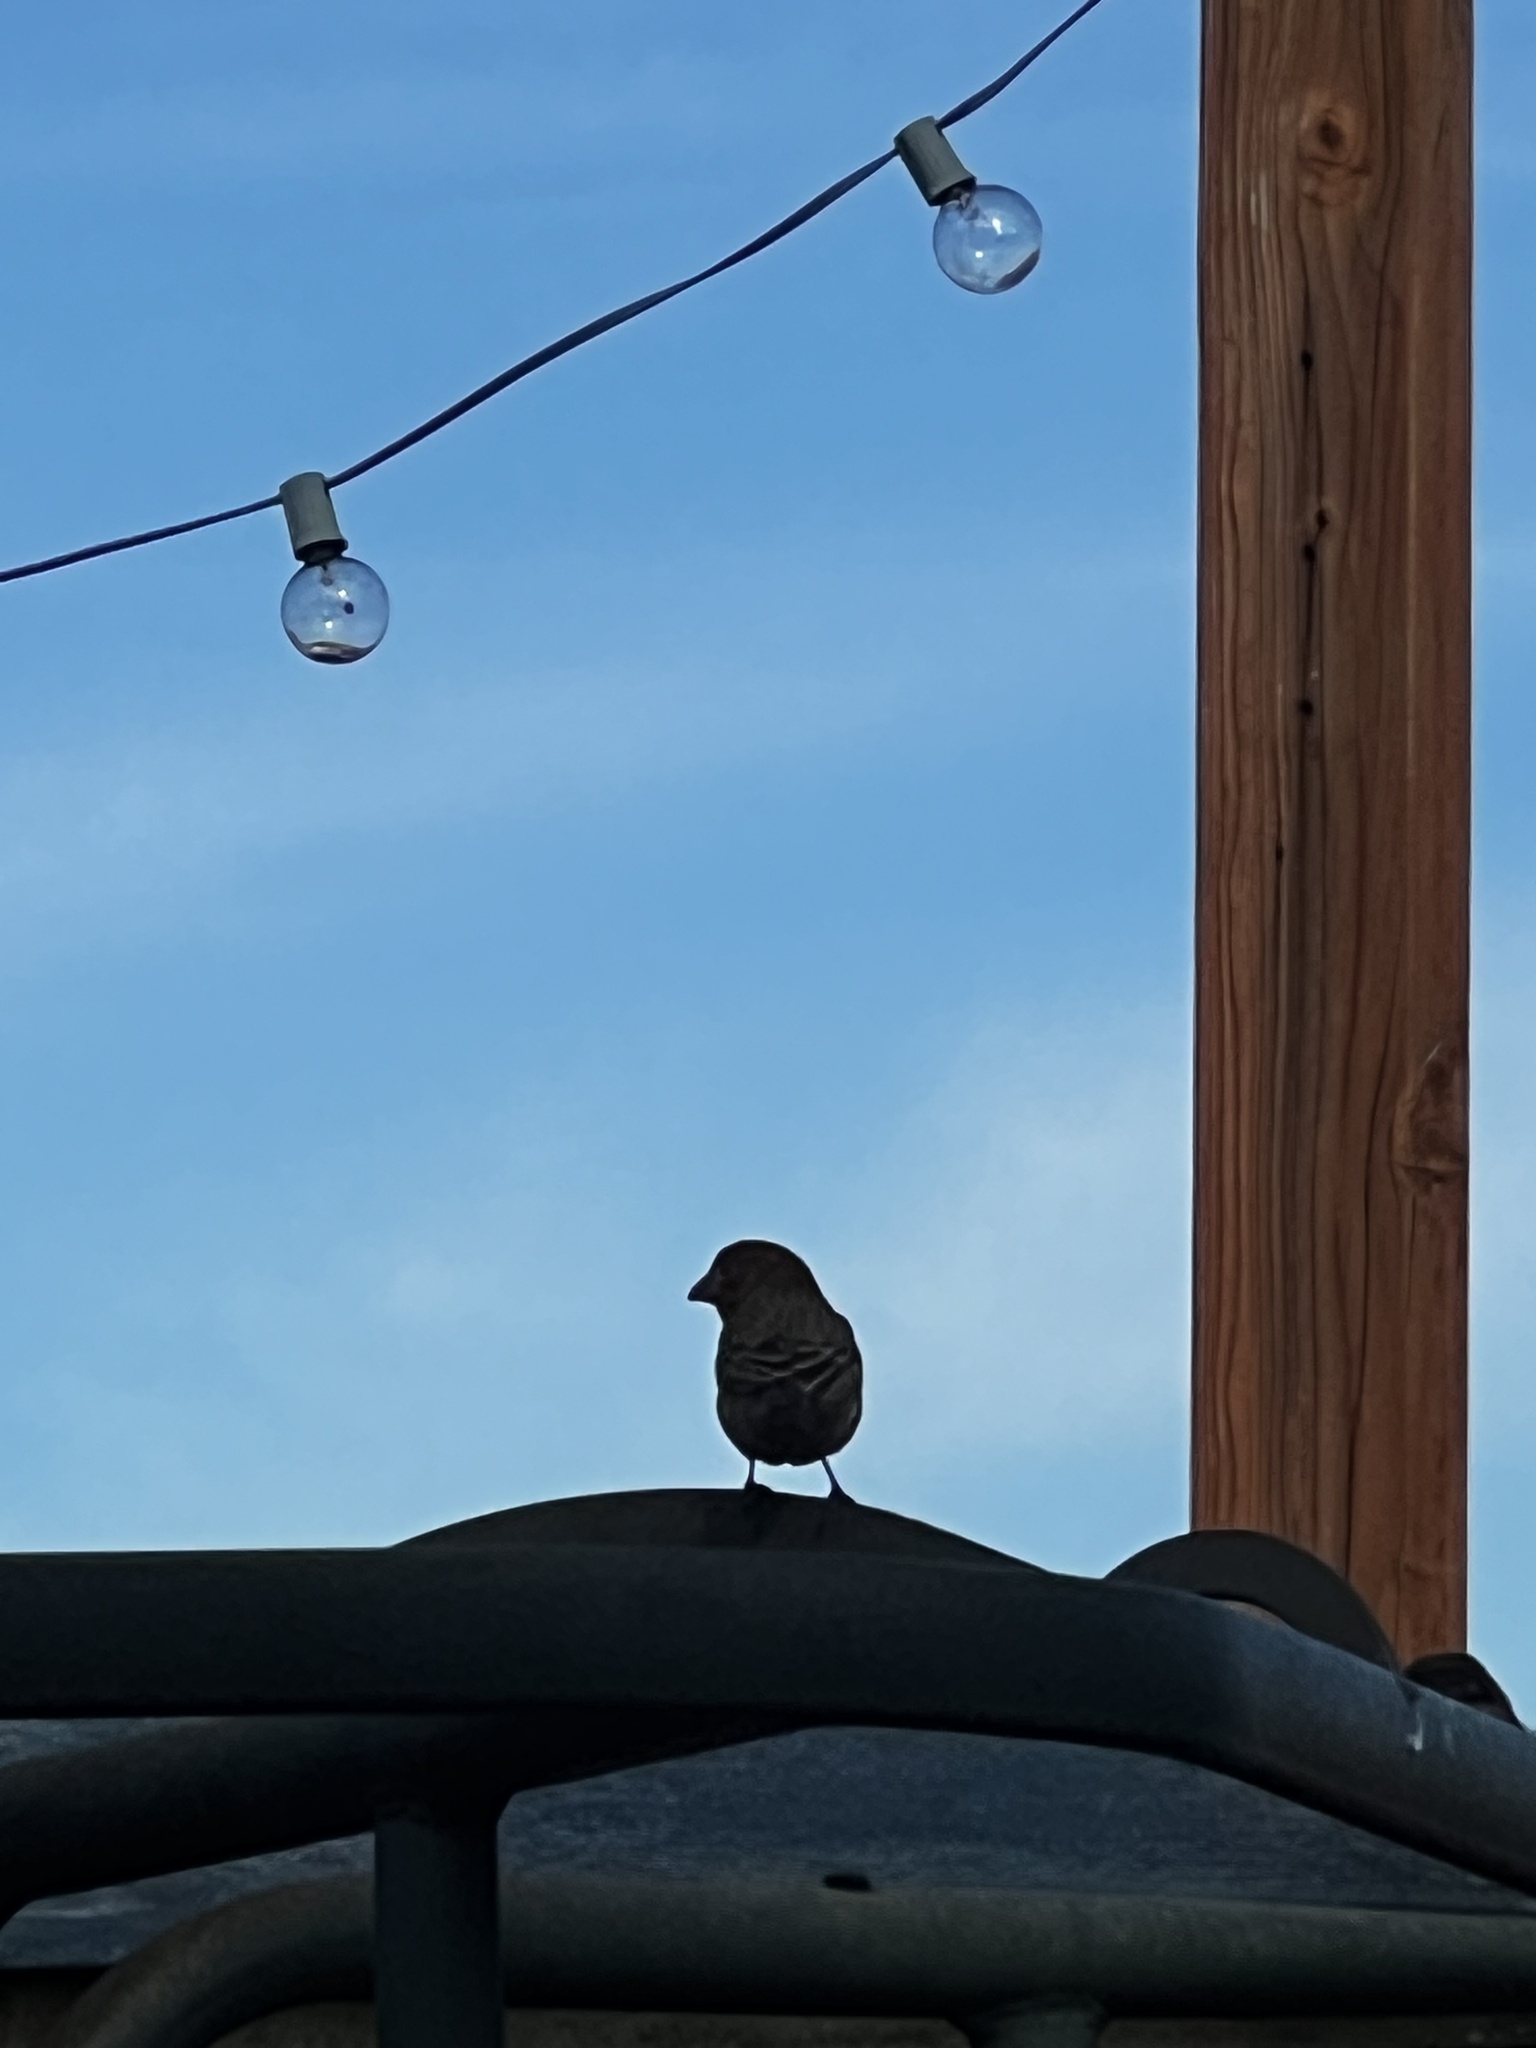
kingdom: Animalia
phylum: Chordata
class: Aves
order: Passeriformes
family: Fringillidae
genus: Haemorhous
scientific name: Haemorhous mexicanus
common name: House finch
